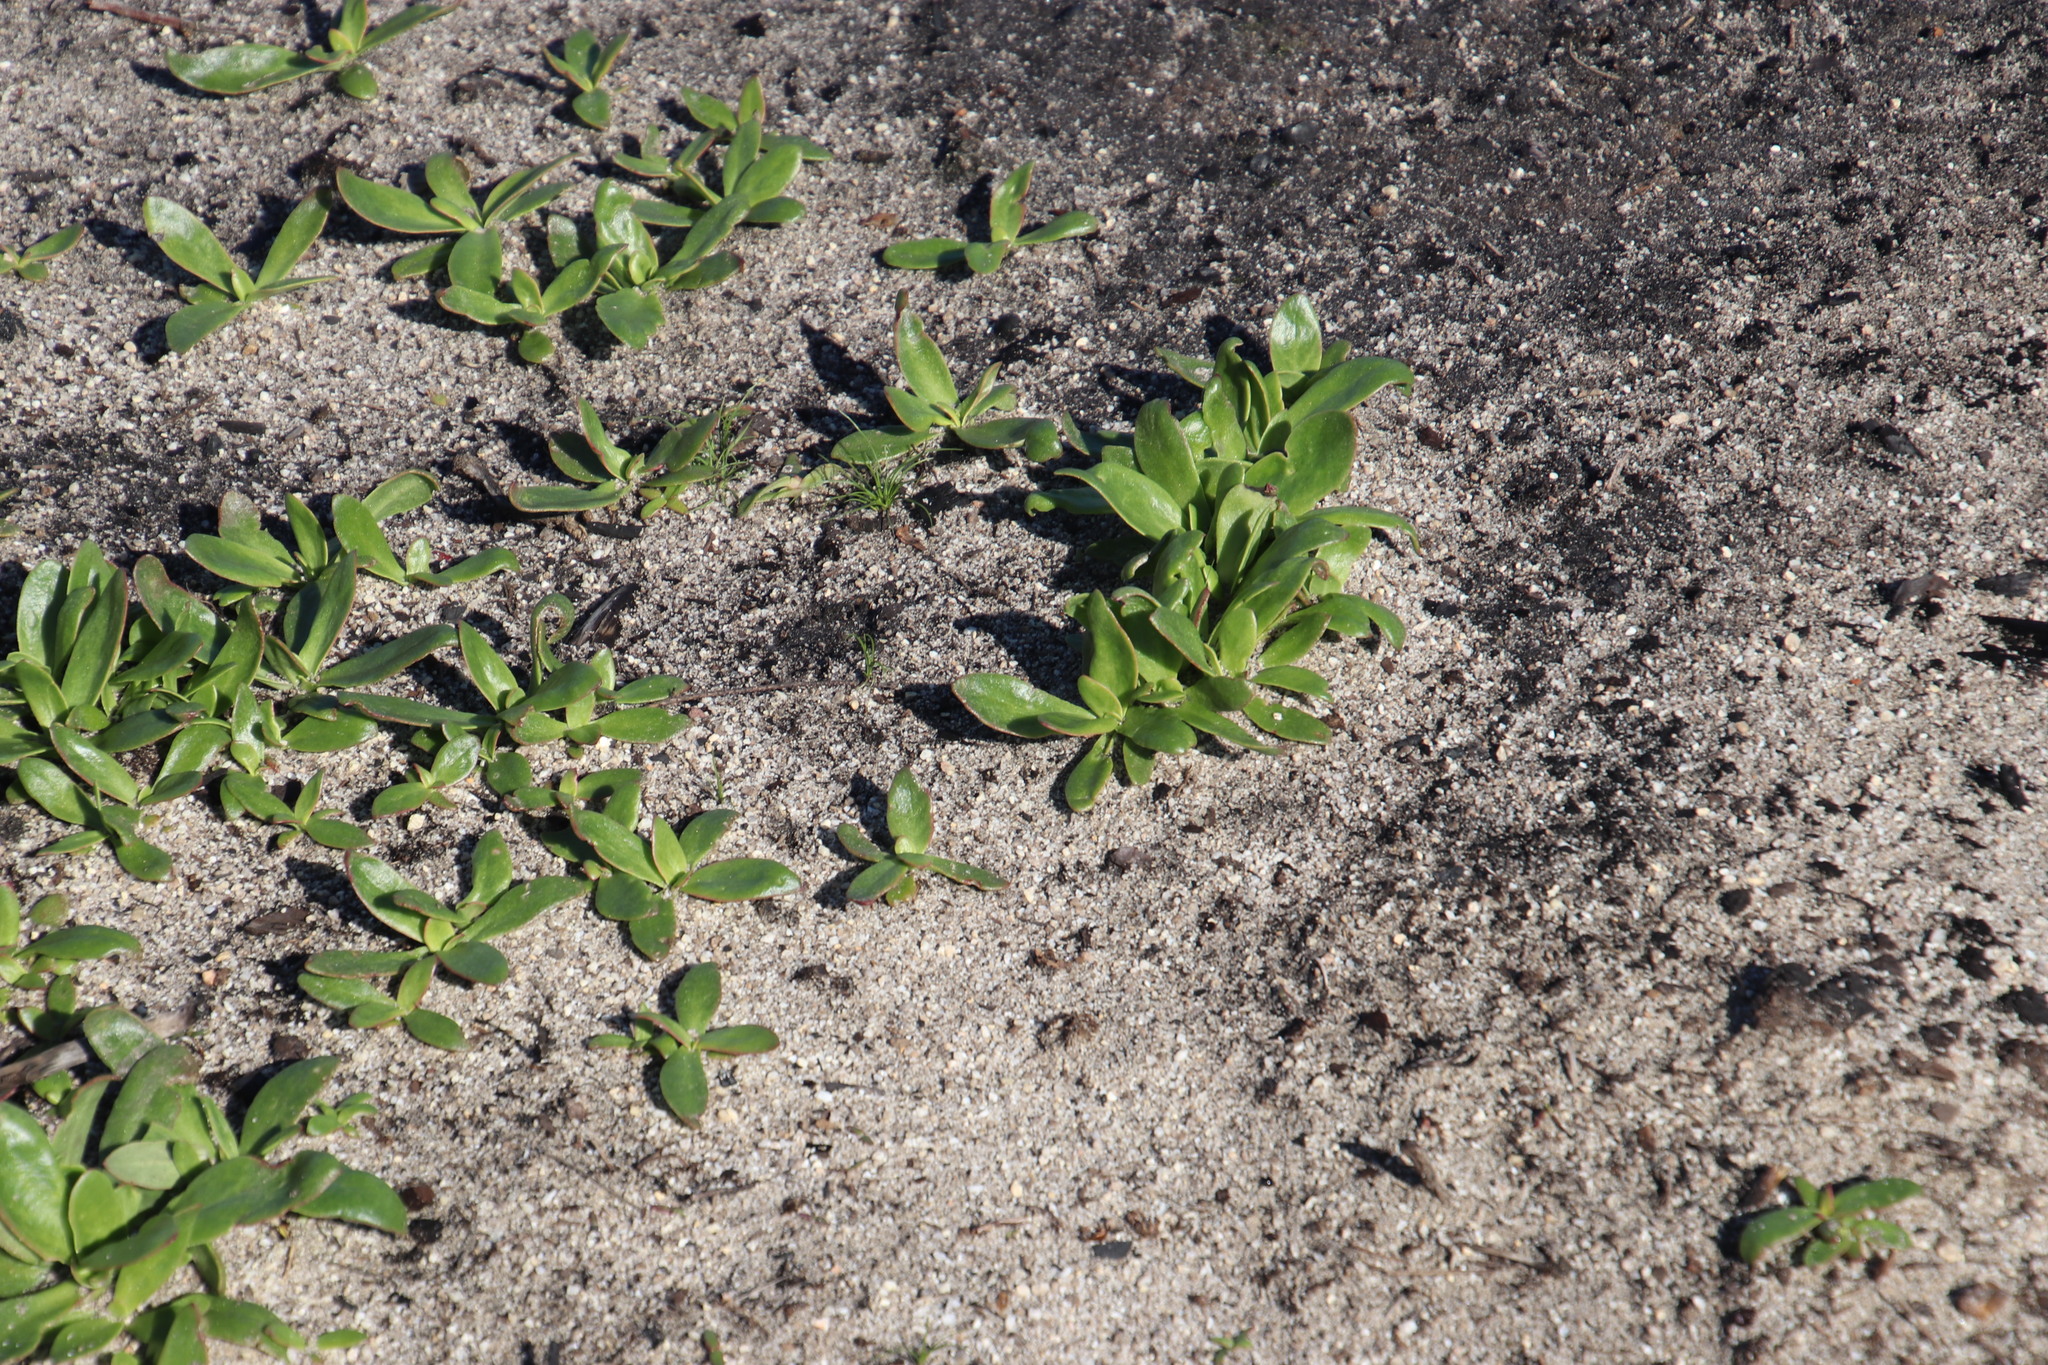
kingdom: Plantae
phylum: Tracheophyta
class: Magnoliopsida
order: Caryophyllales
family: Aizoaceae
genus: Skiatophytum
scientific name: Skiatophytum tripolium
